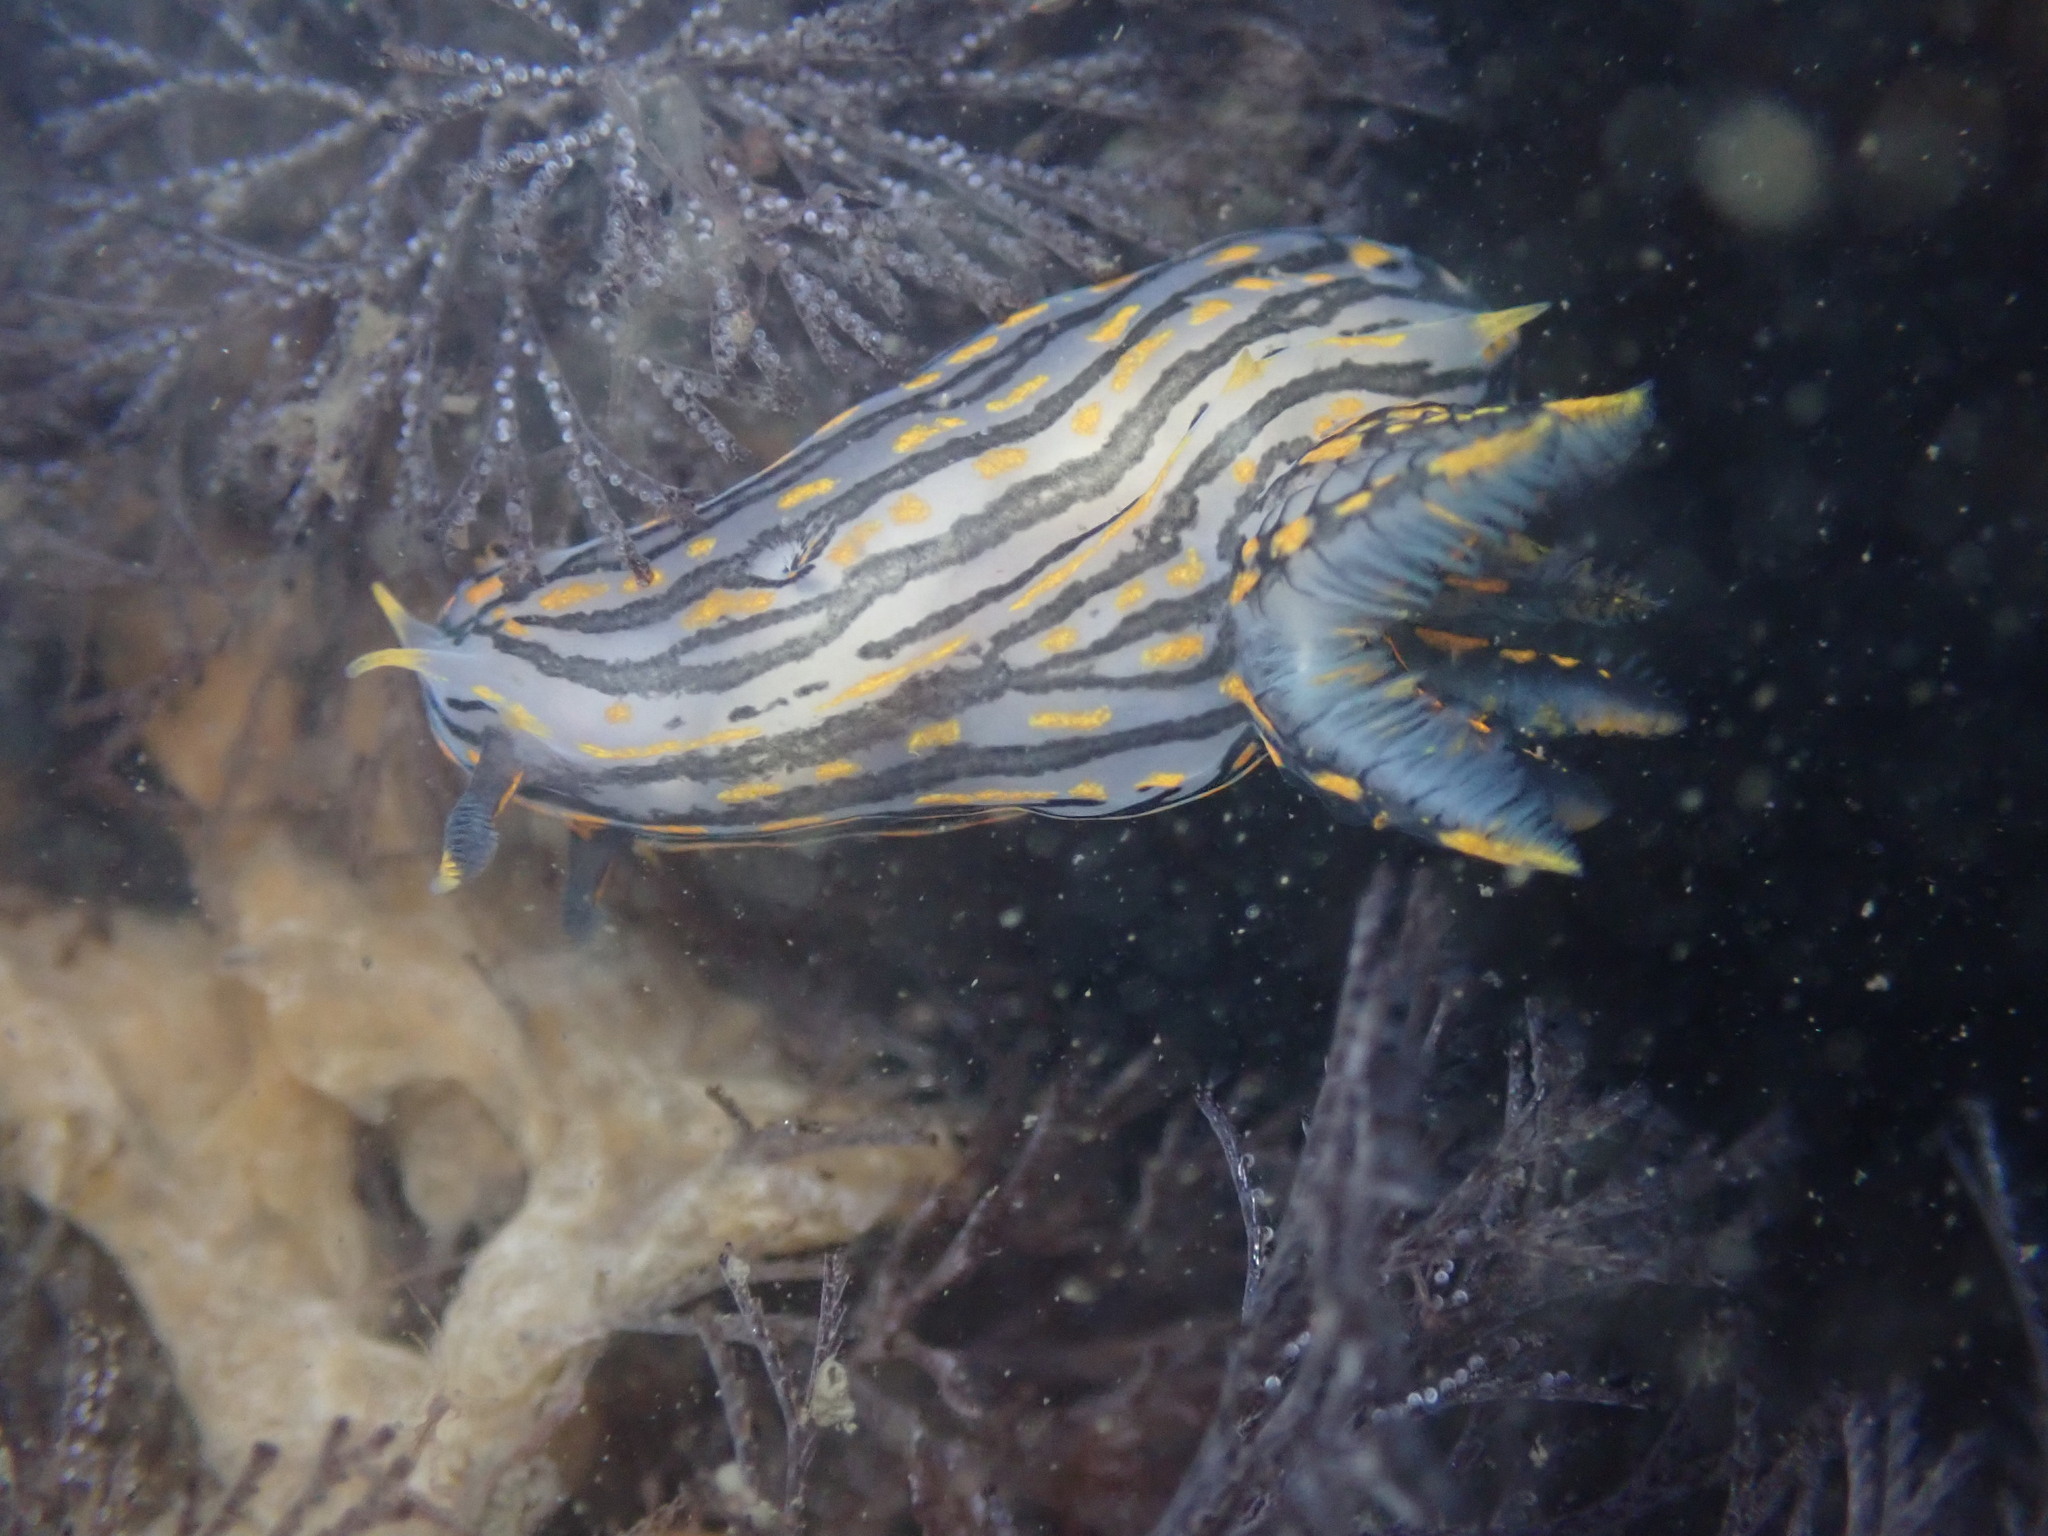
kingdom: Animalia
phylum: Mollusca
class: Gastropoda
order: Nudibranchia
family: Polyceridae
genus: Polycera
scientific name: Polycera atra
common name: Orange-spike polycera
